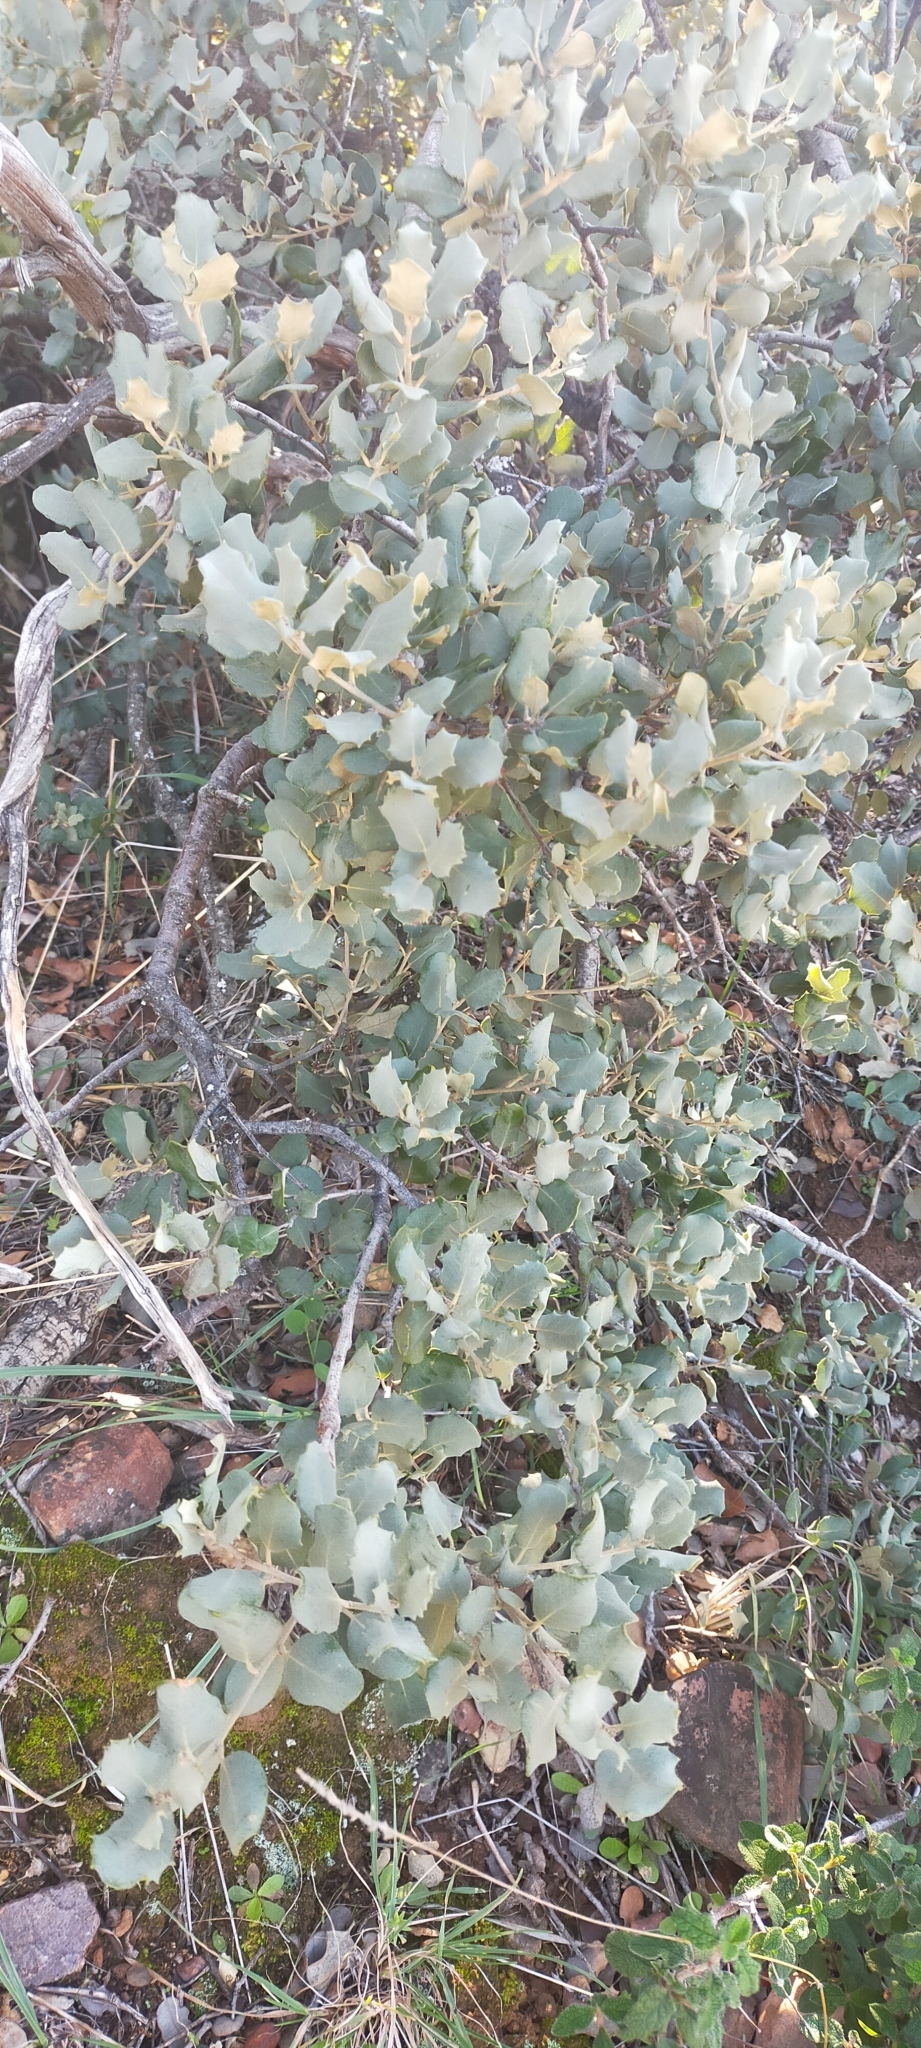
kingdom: Plantae
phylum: Tracheophyta
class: Magnoliopsida
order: Fagales
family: Fagaceae
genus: Quercus
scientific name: Quercus rotundifolia
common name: Holm oak
